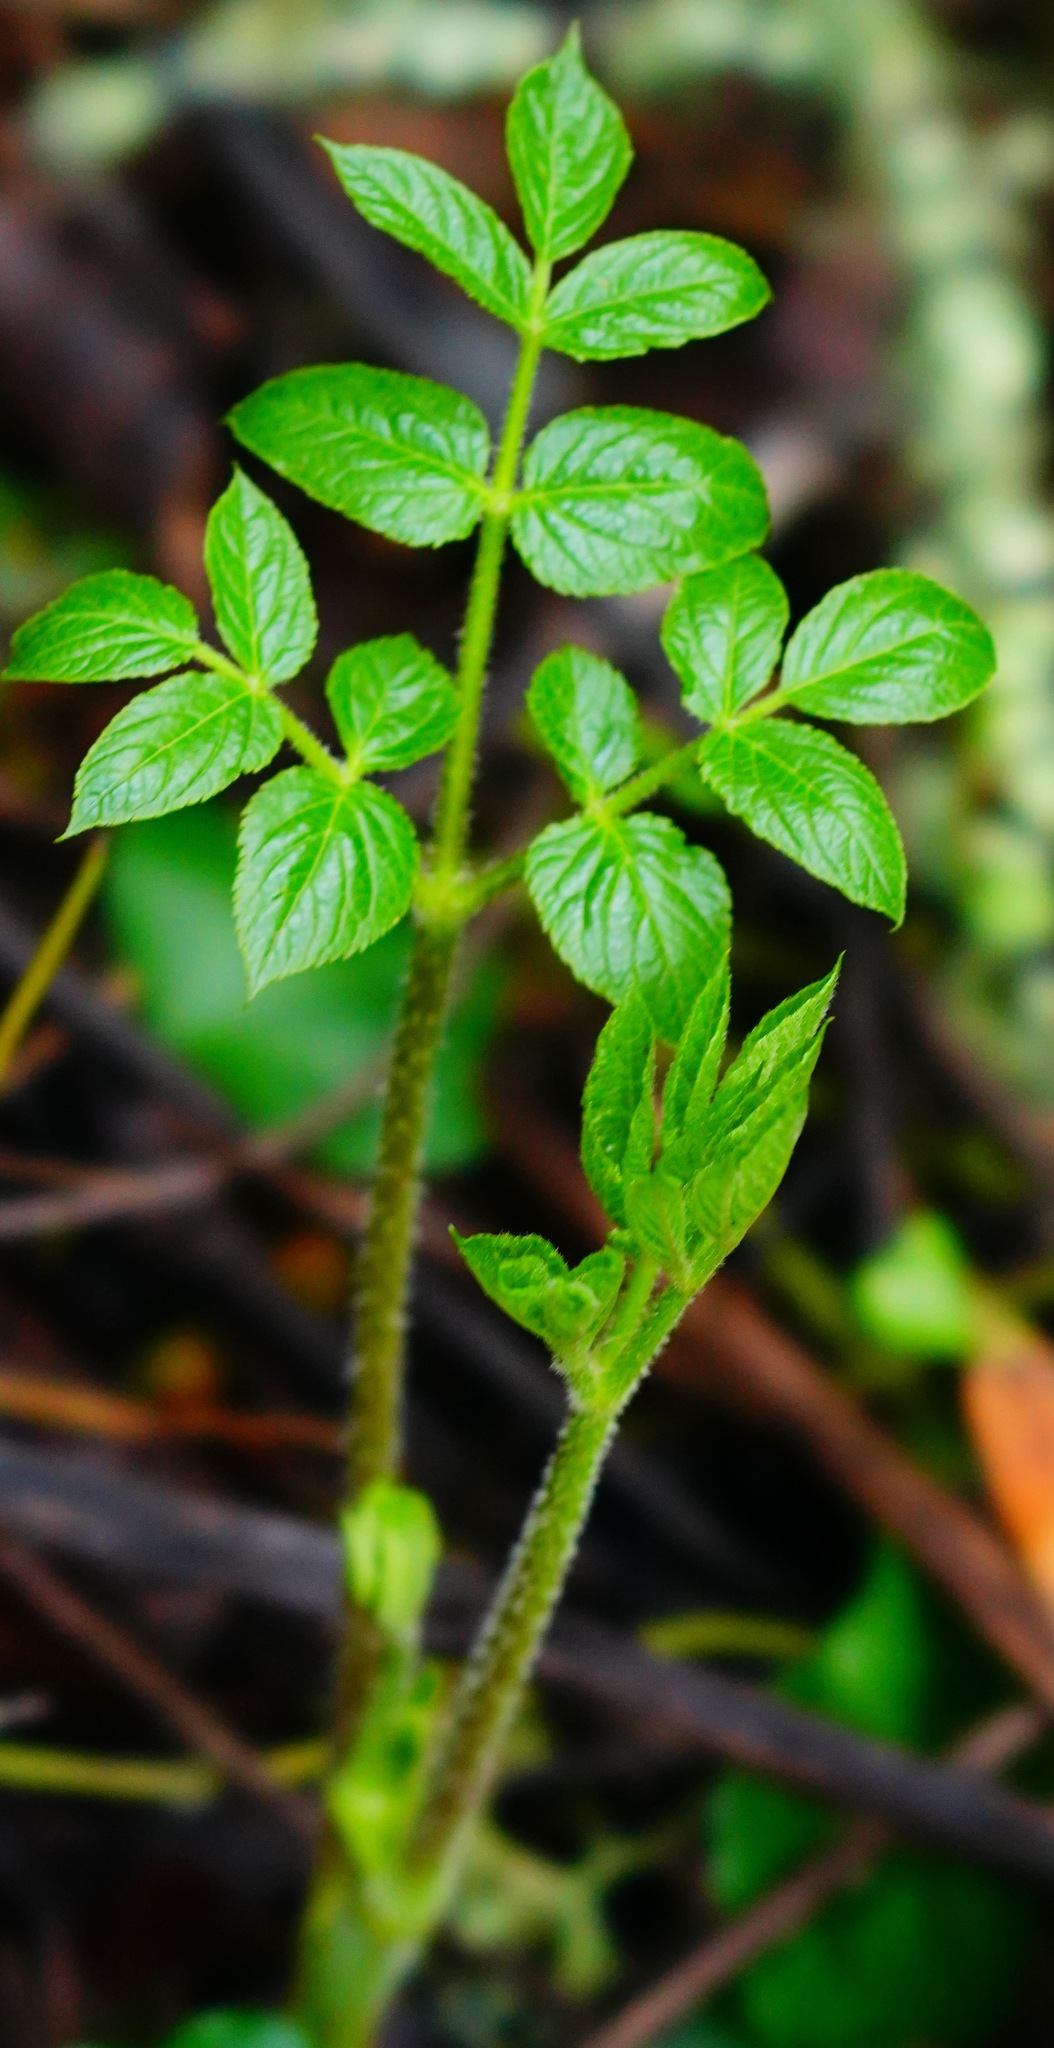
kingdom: Plantae
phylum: Tracheophyta
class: Magnoliopsida
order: Apiales
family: Araliaceae
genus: Aralia
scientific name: Aralia californica
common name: California-ginseng
